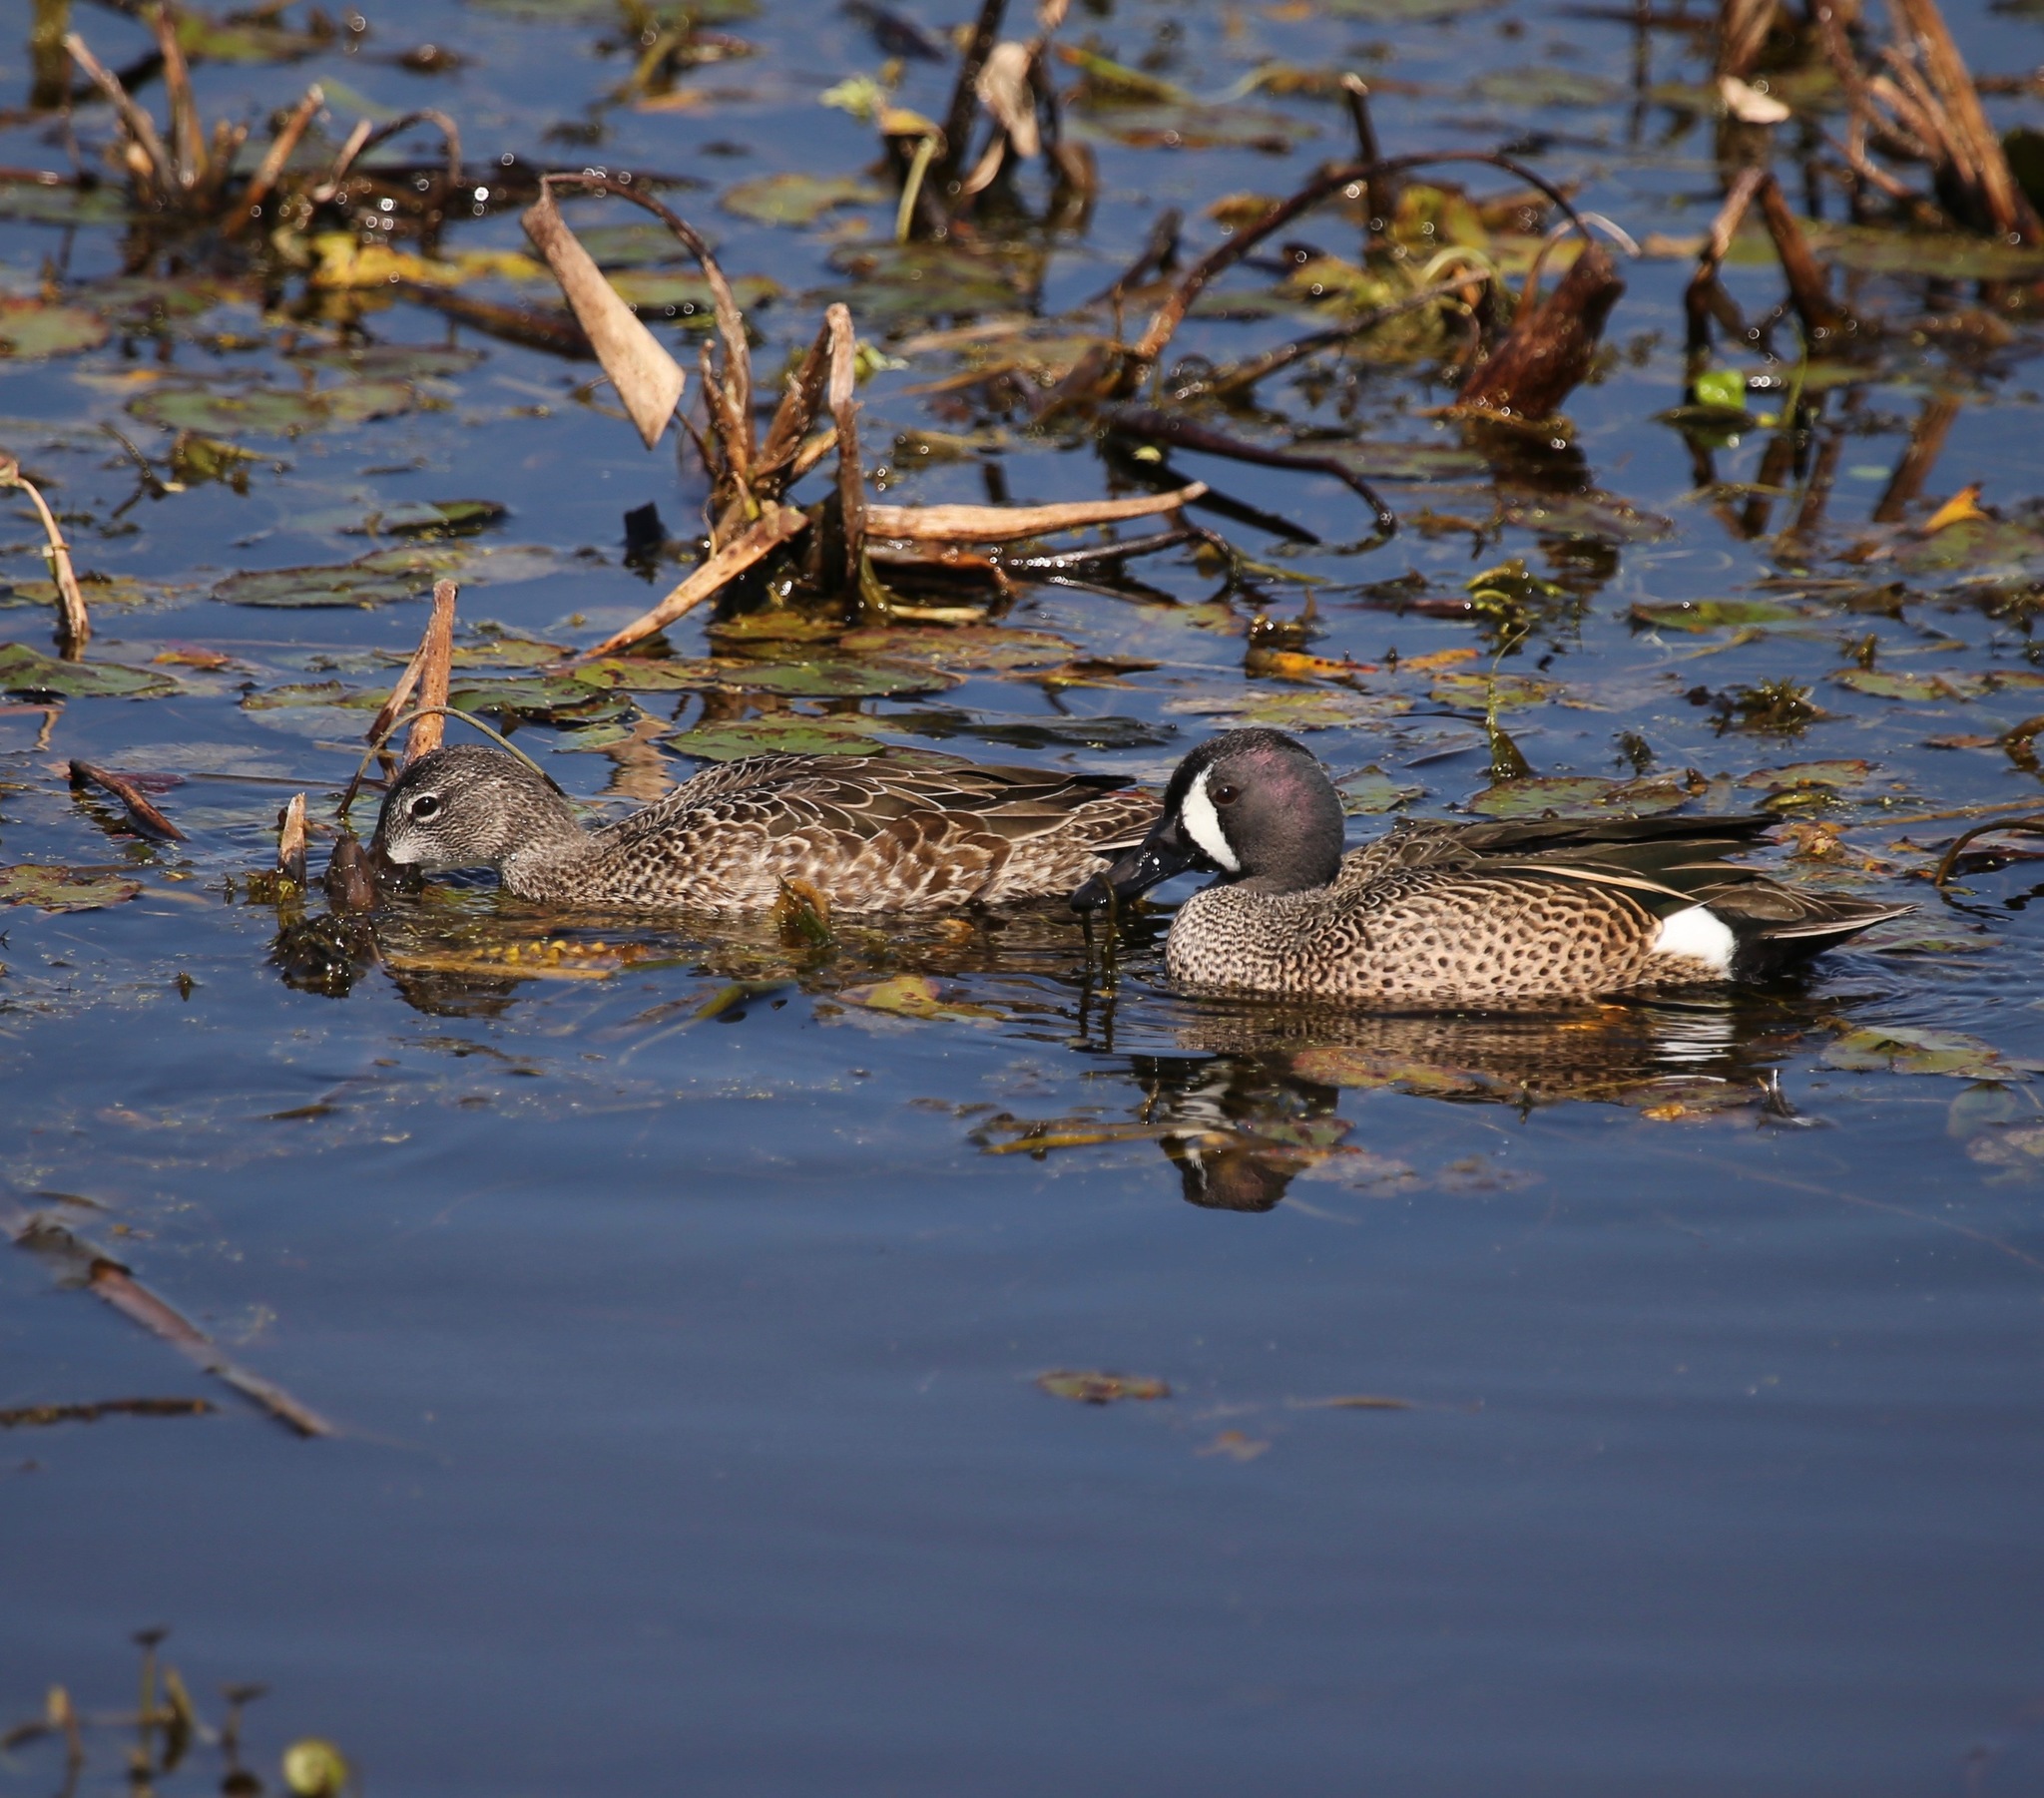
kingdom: Animalia
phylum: Chordata
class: Aves
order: Anseriformes
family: Anatidae
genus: Spatula
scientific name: Spatula discors
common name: Blue-winged teal
